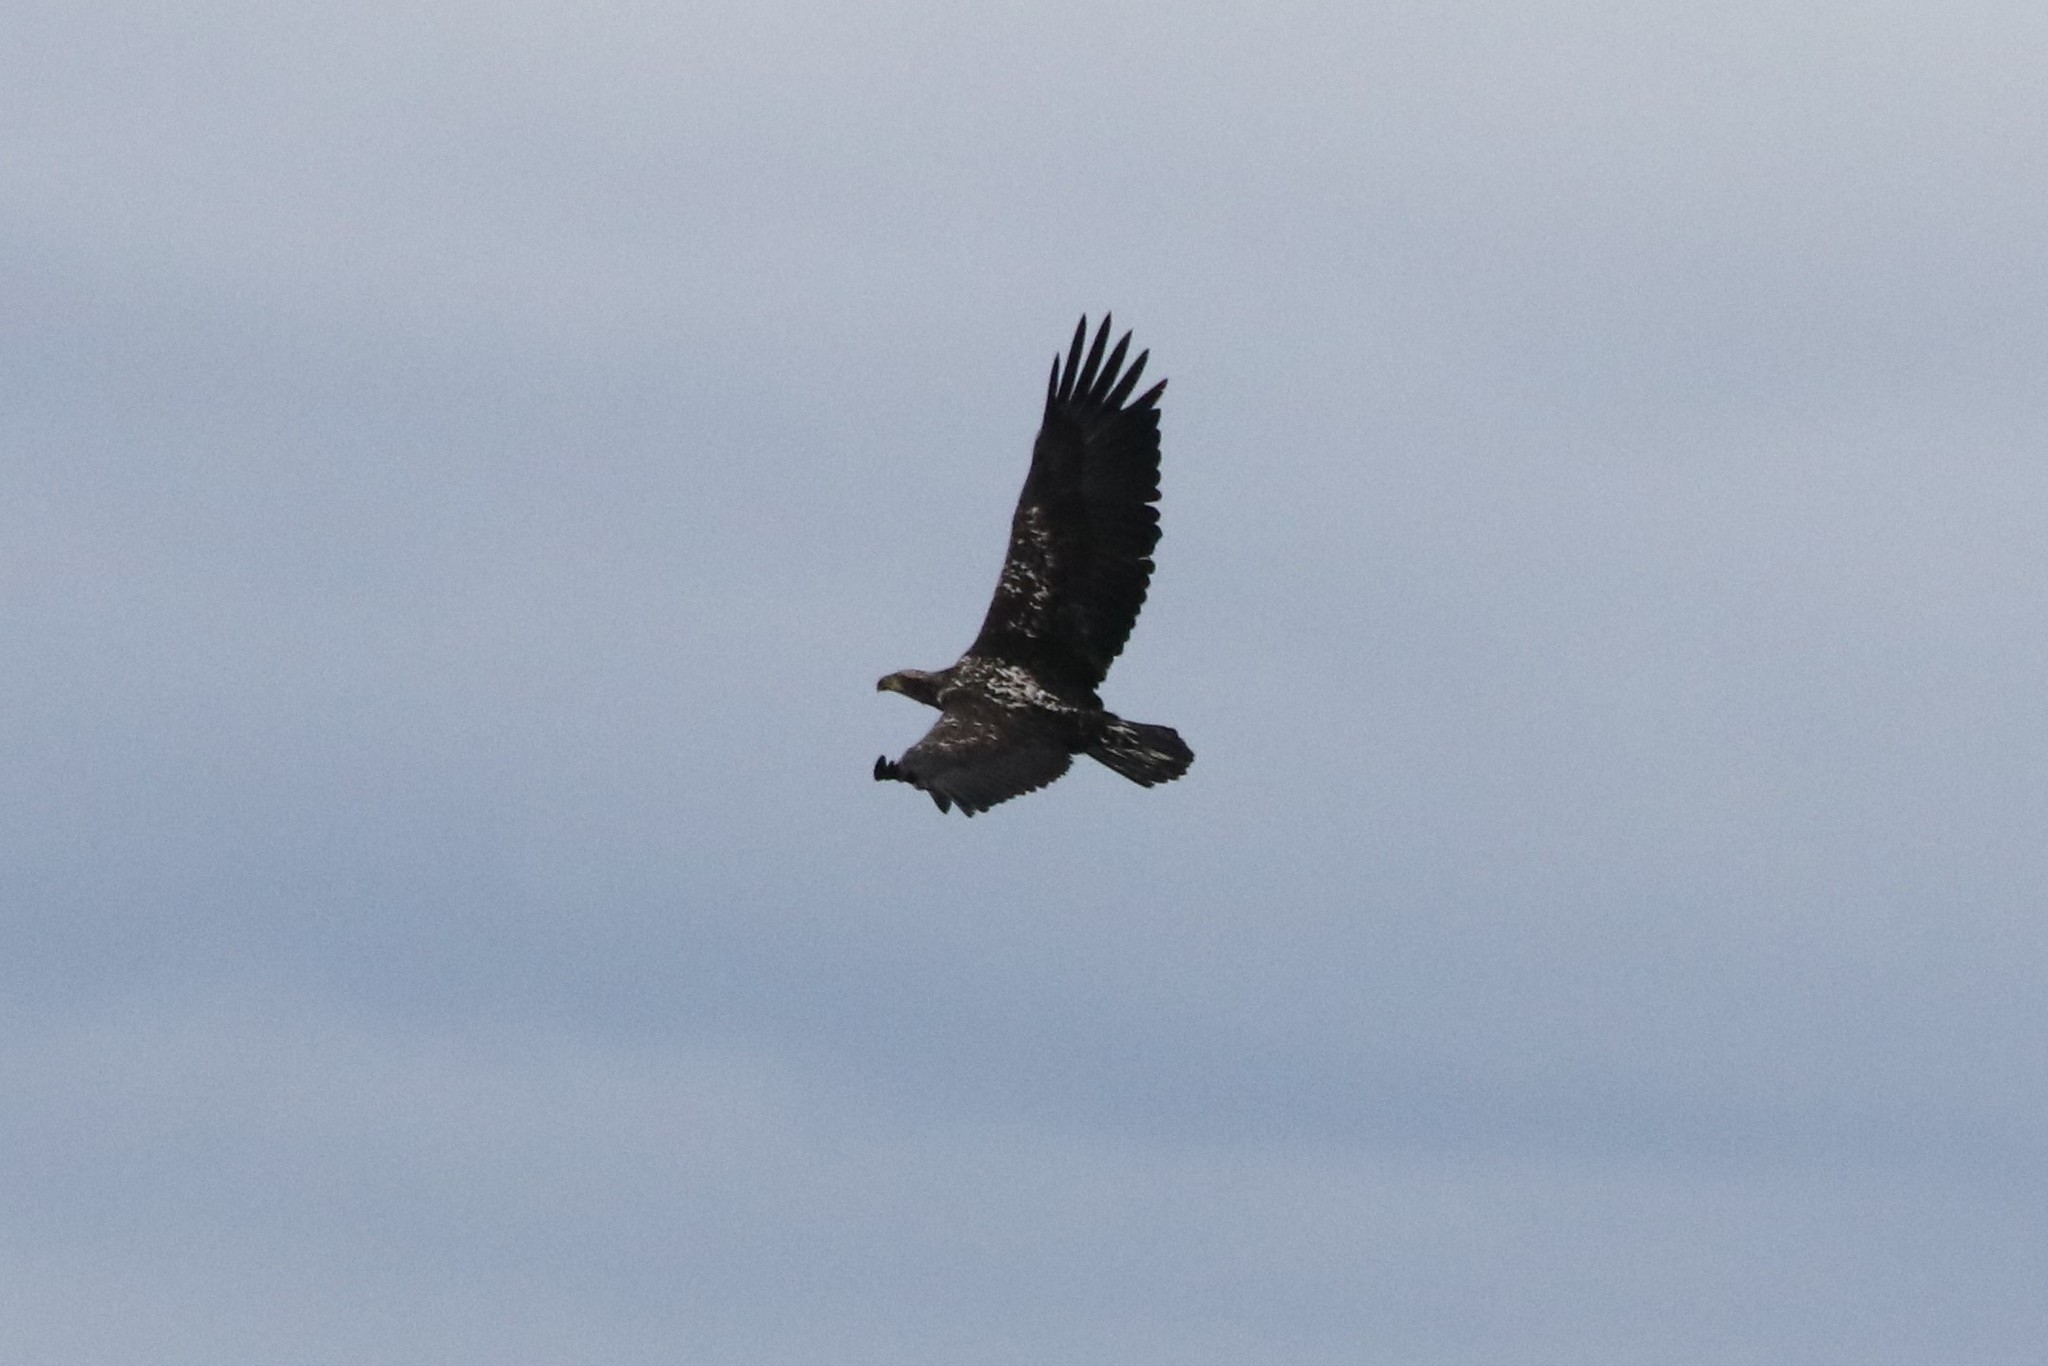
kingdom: Animalia
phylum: Chordata
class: Aves
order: Accipitriformes
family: Accipitridae
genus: Haliaeetus
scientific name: Haliaeetus leucocephalus
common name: Bald eagle
